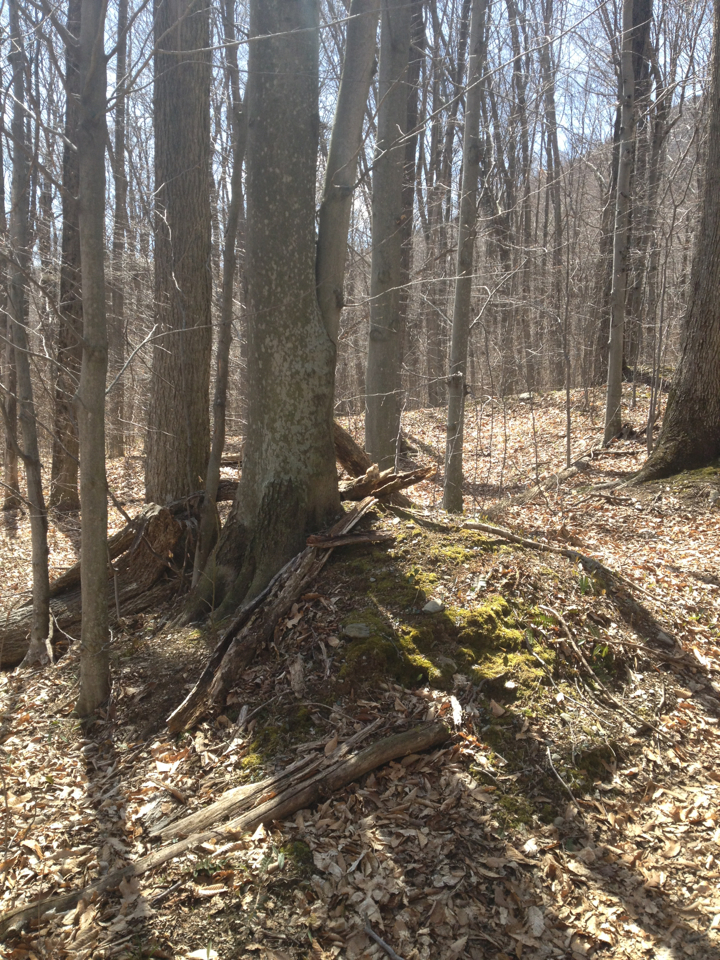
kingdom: Animalia
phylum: Chordata
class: Mammalia
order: Rodentia
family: Sciuridae
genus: Tamias
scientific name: Tamias striatus
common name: Eastern chipmunk
